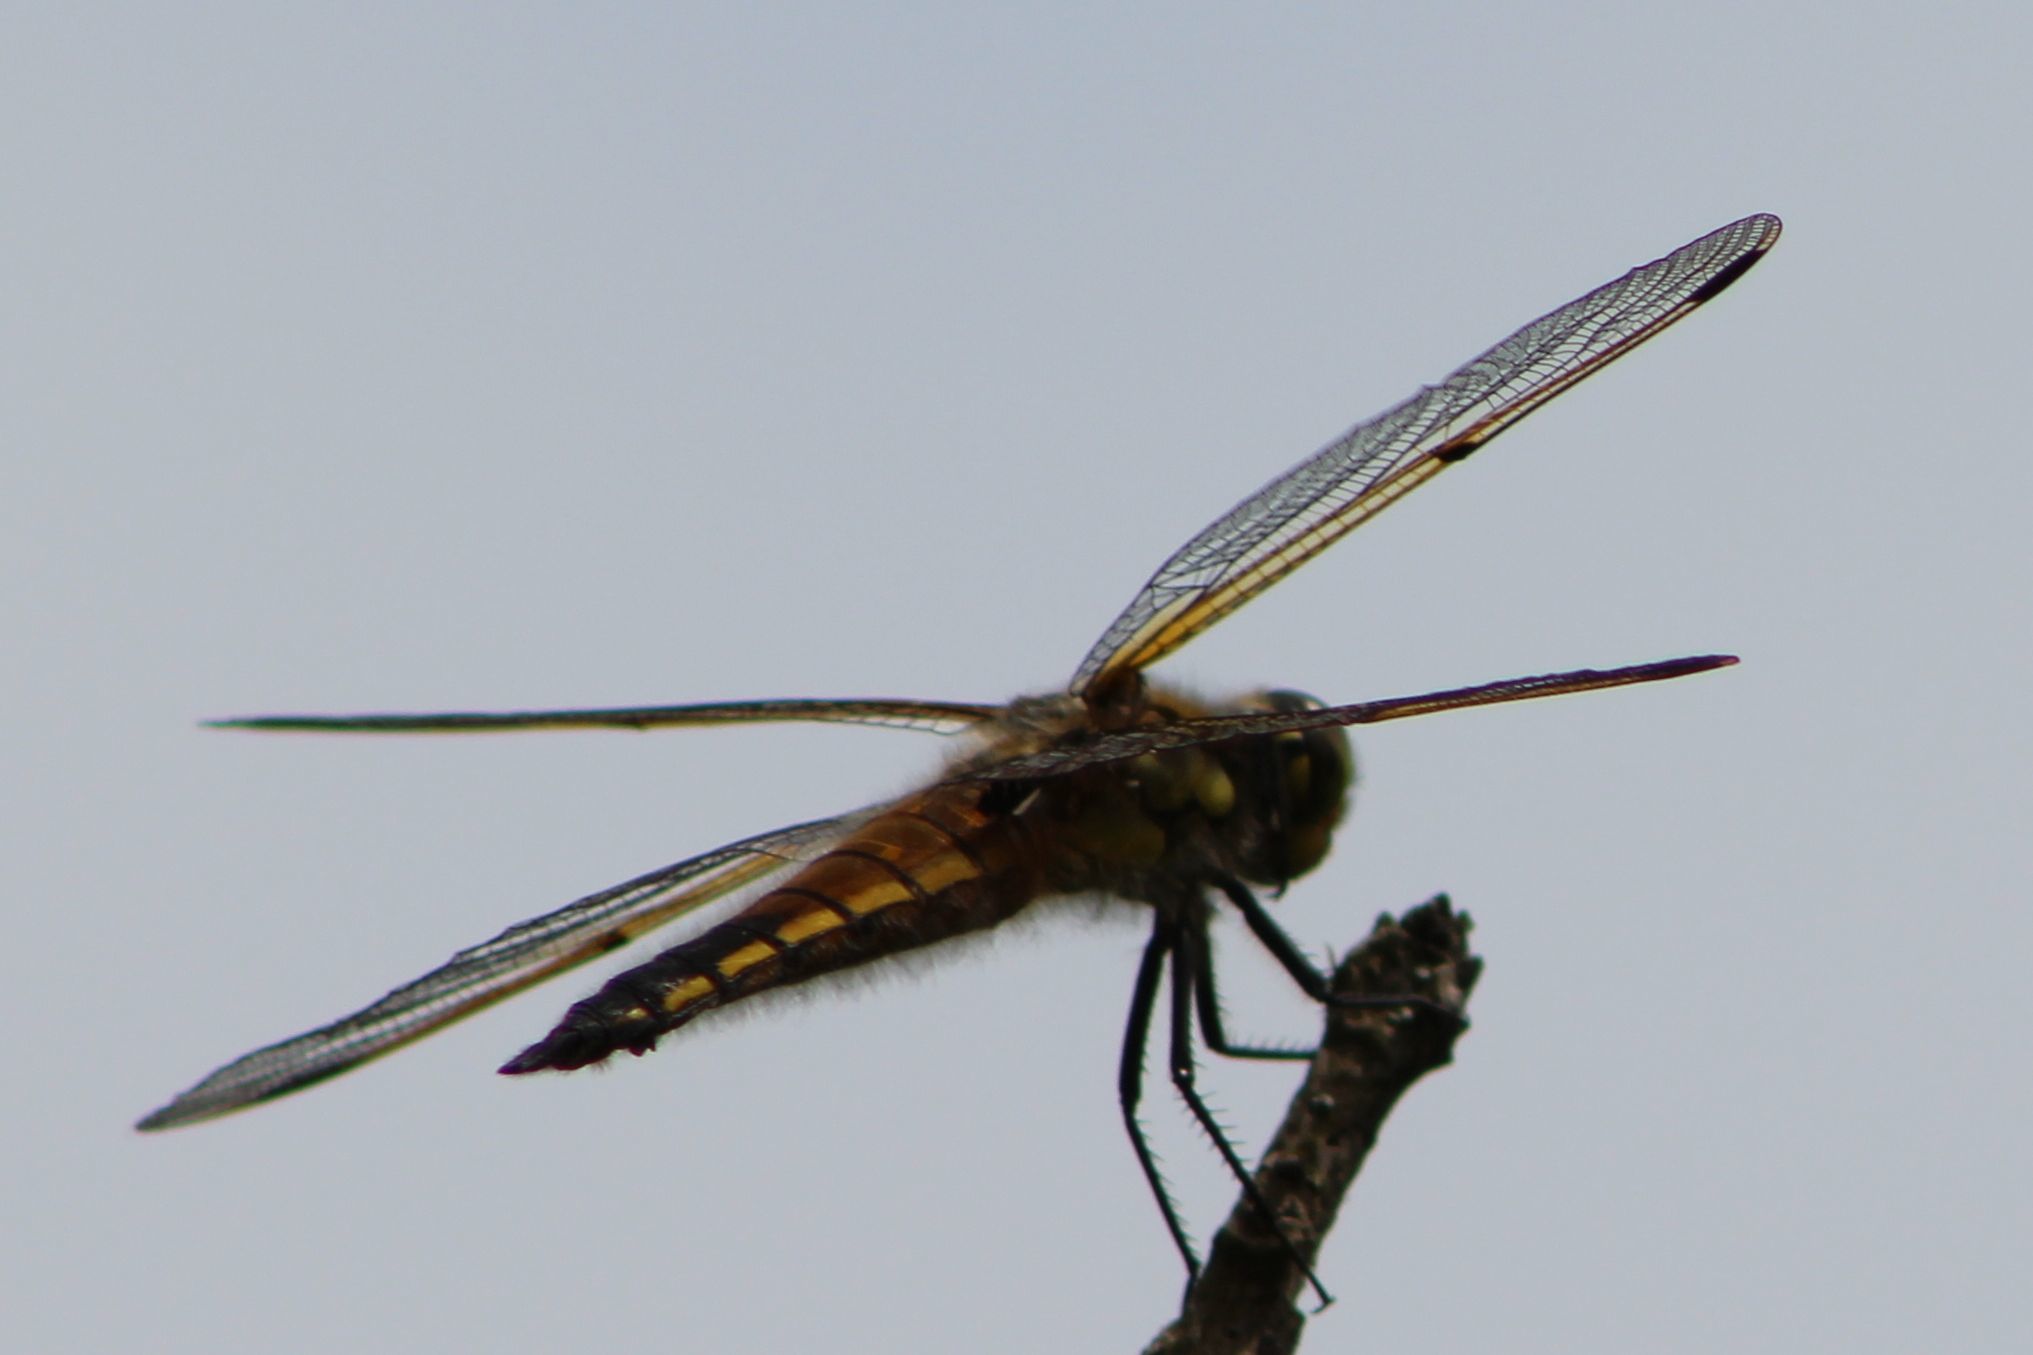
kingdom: Animalia
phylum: Arthropoda
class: Insecta
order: Odonata
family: Libellulidae
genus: Libellula
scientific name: Libellula quadrimaculata
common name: Four-spotted chaser
